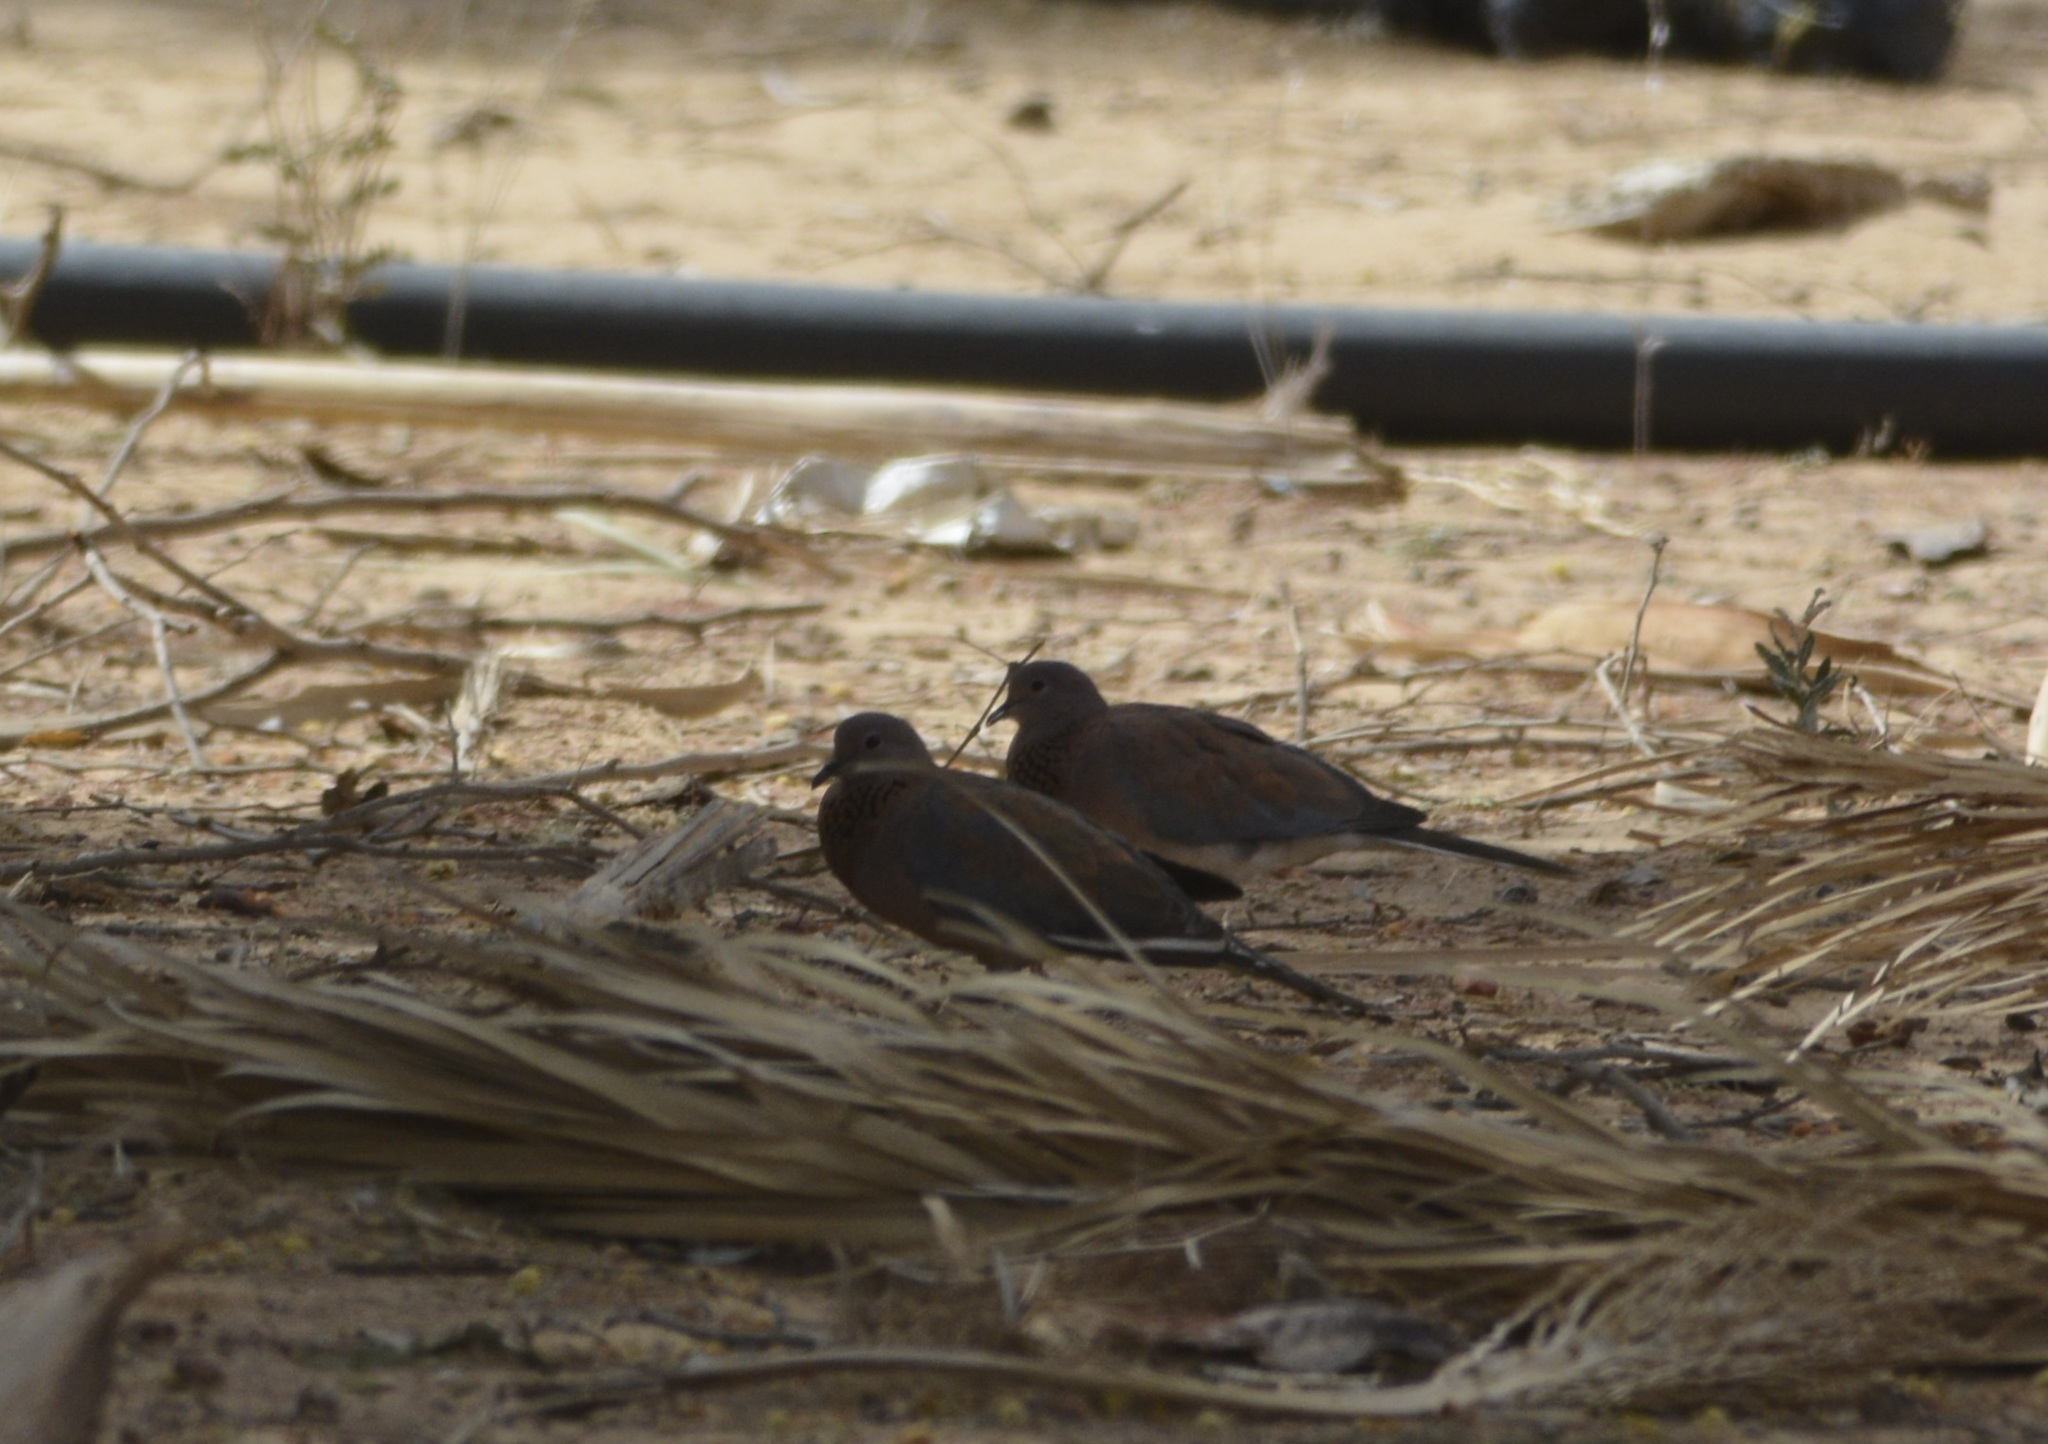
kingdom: Animalia
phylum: Chordata
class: Aves
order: Columbiformes
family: Columbidae
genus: Spilopelia
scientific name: Spilopelia senegalensis
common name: Laughing dove
